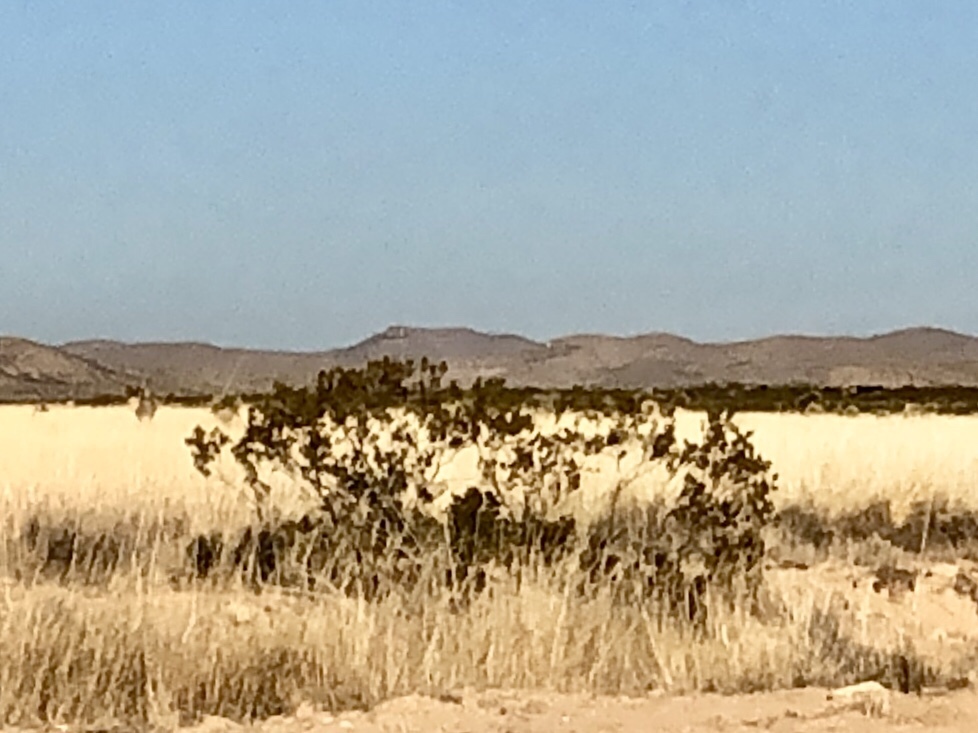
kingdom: Plantae
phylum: Tracheophyta
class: Magnoliopsida
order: Zygophyllales
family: Zygophyllaceae
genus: Larrea
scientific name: Larrea tridentata
